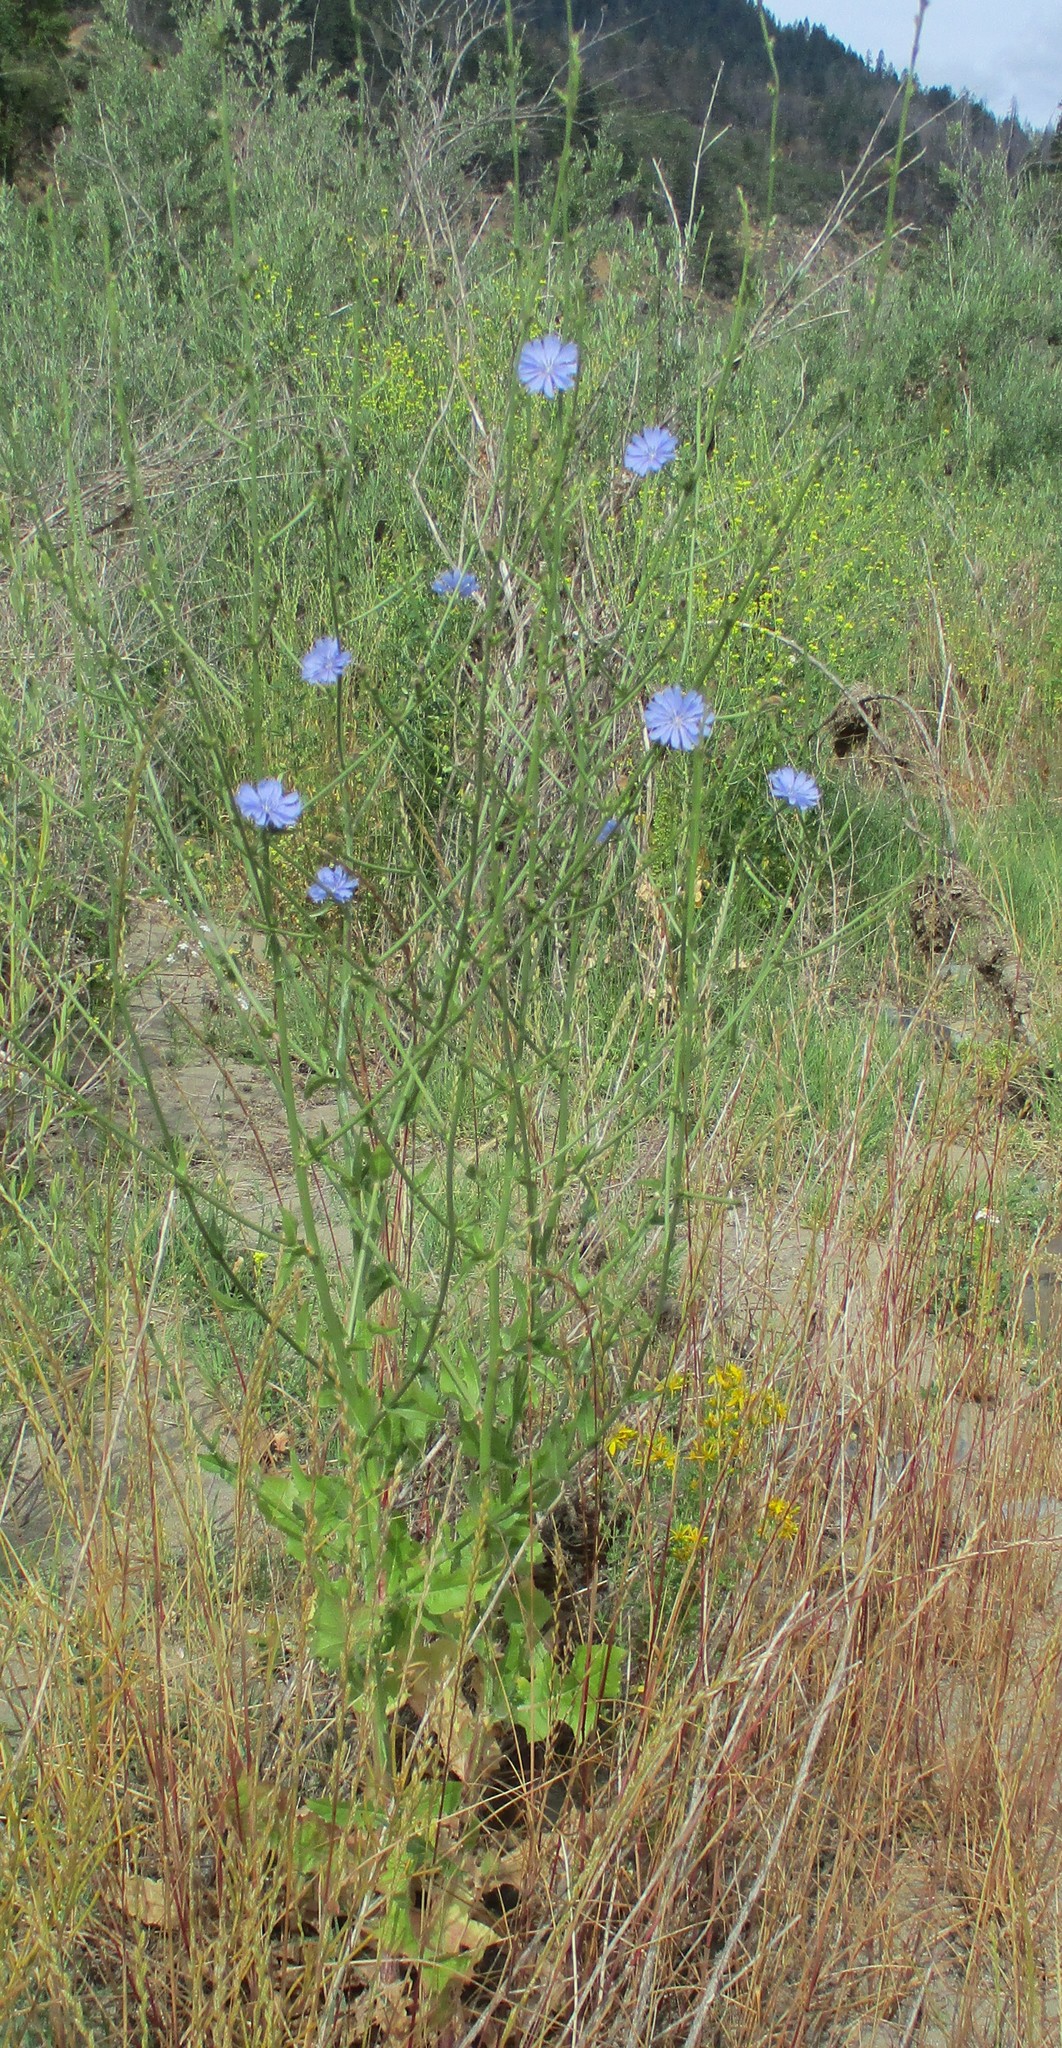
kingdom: Plantae
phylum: Tracheophyta
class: Magnoliopsida
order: Asterales
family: Asteraceae
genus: Cichorium
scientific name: Cichorium intybus
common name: Chicory
